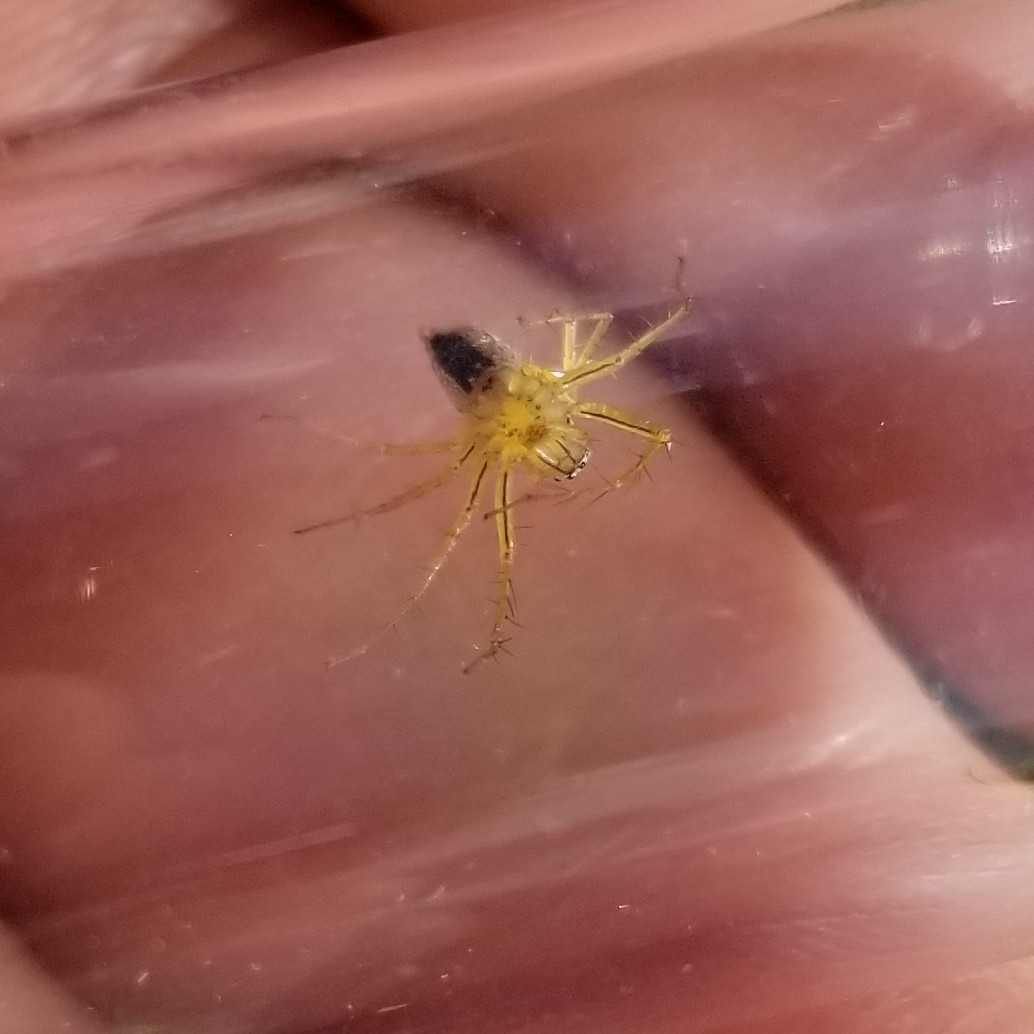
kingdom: Animalia
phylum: Arthropoda
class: Arachnida
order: Araneae
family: Oxyopidae
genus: Oxyopes
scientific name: Oxyopes salticus
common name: Lynx spiders
